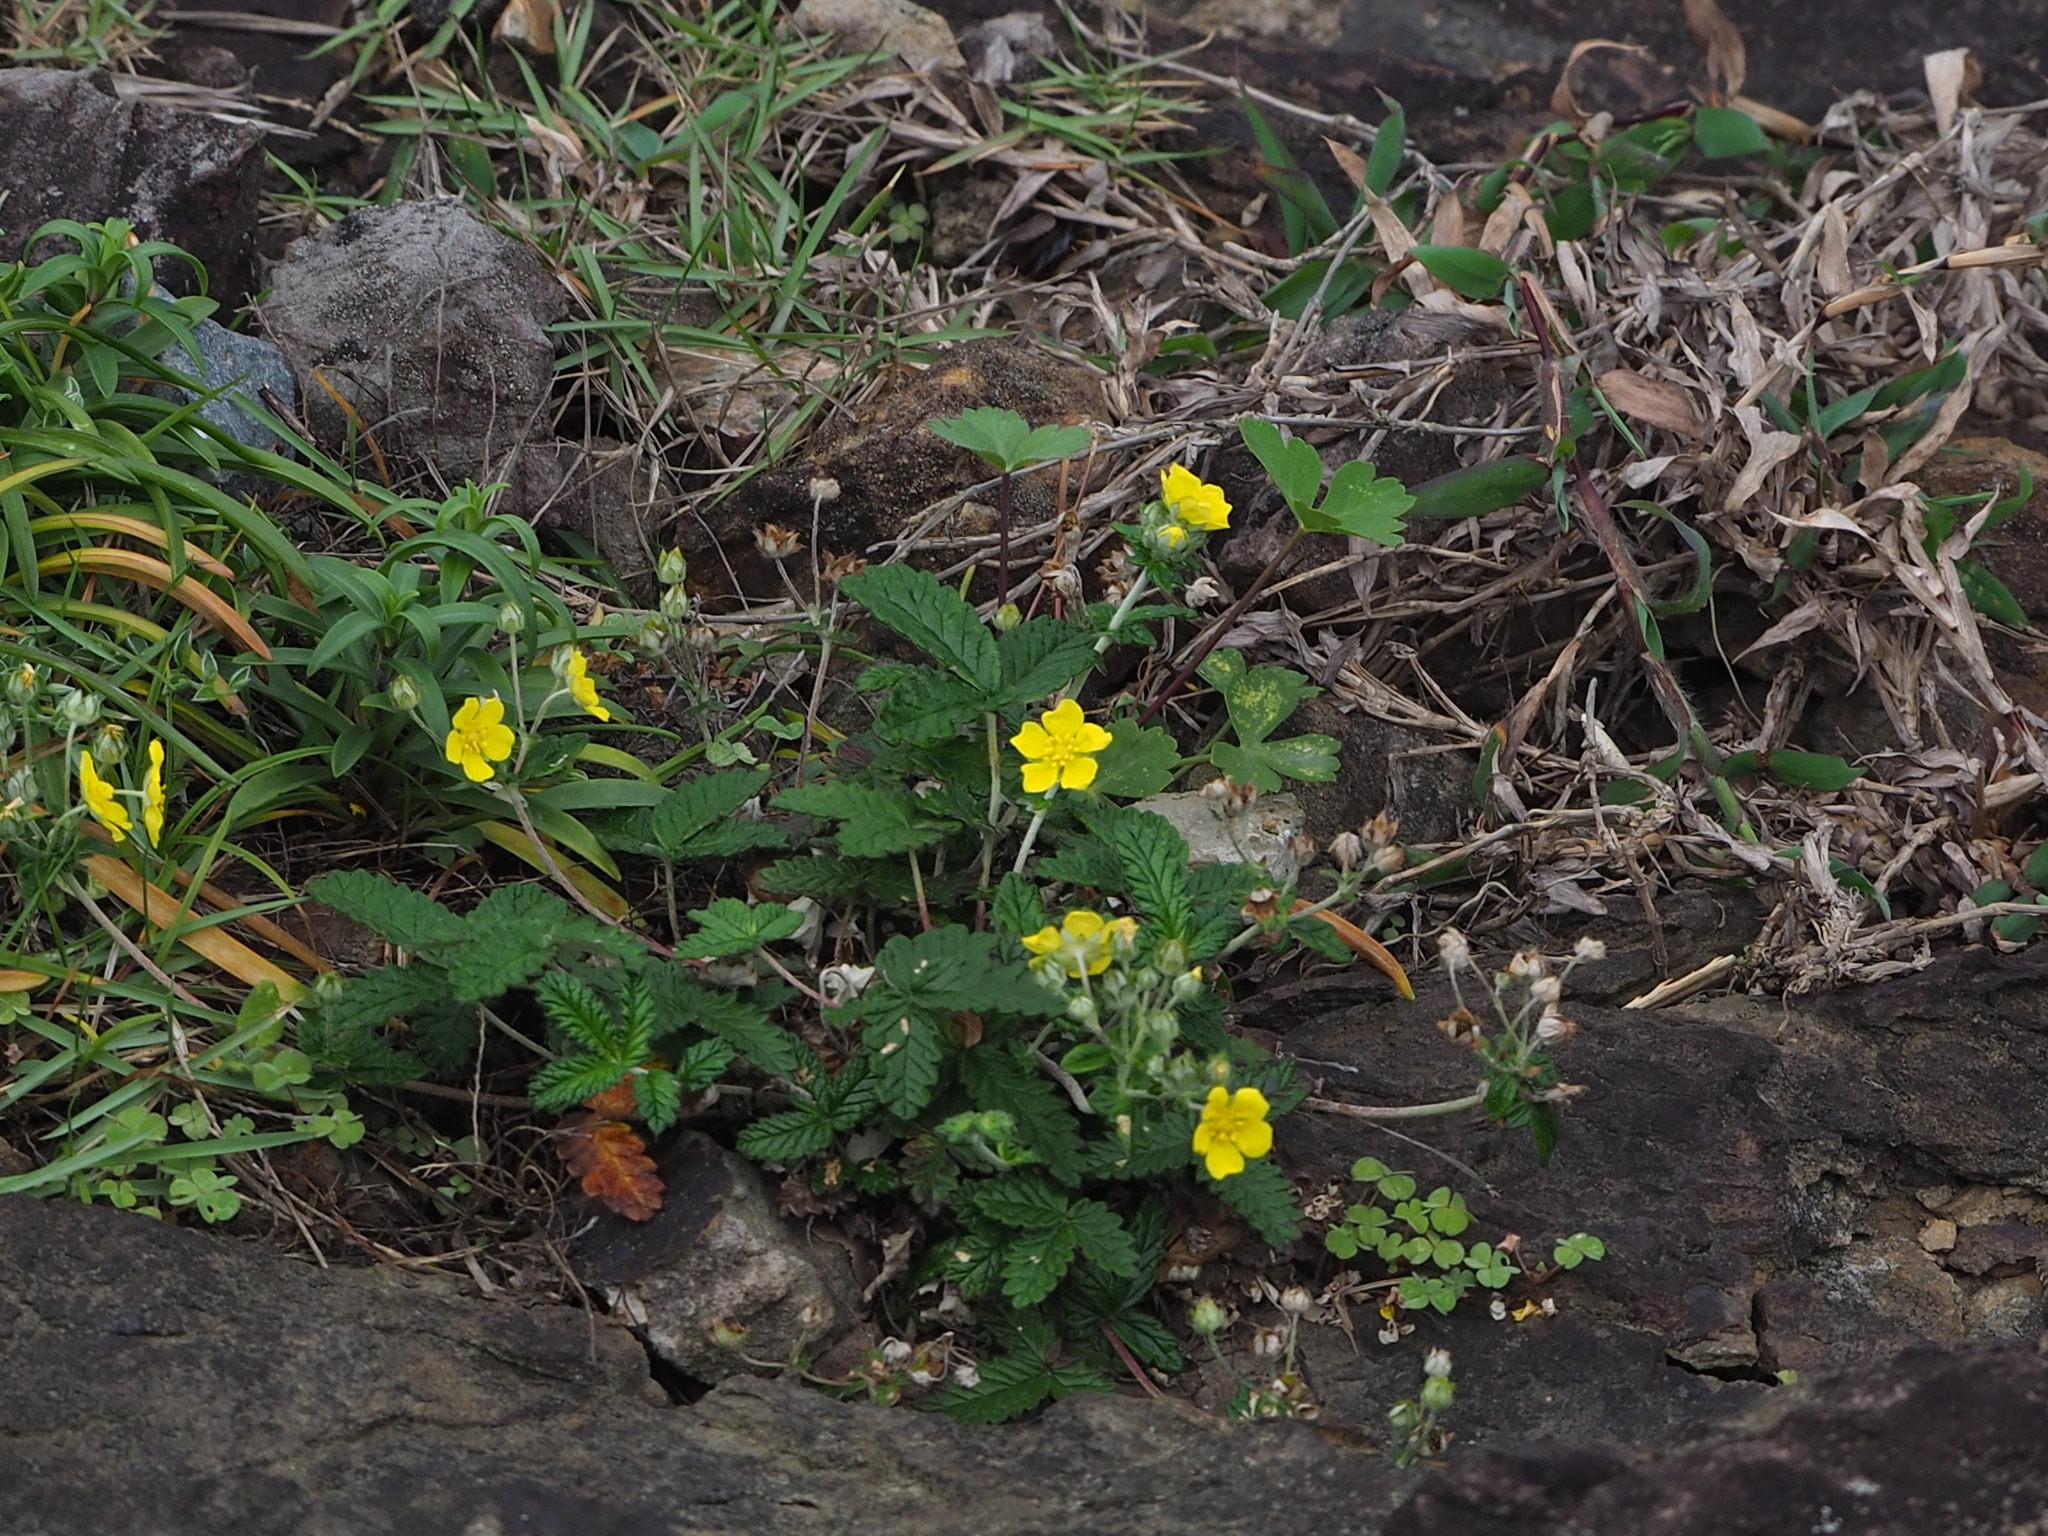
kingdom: Plantae
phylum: Tracheophyta
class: Magnoliopsida
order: Rosales
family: Rosaceae
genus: Potentilla
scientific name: Potentilla discolor
